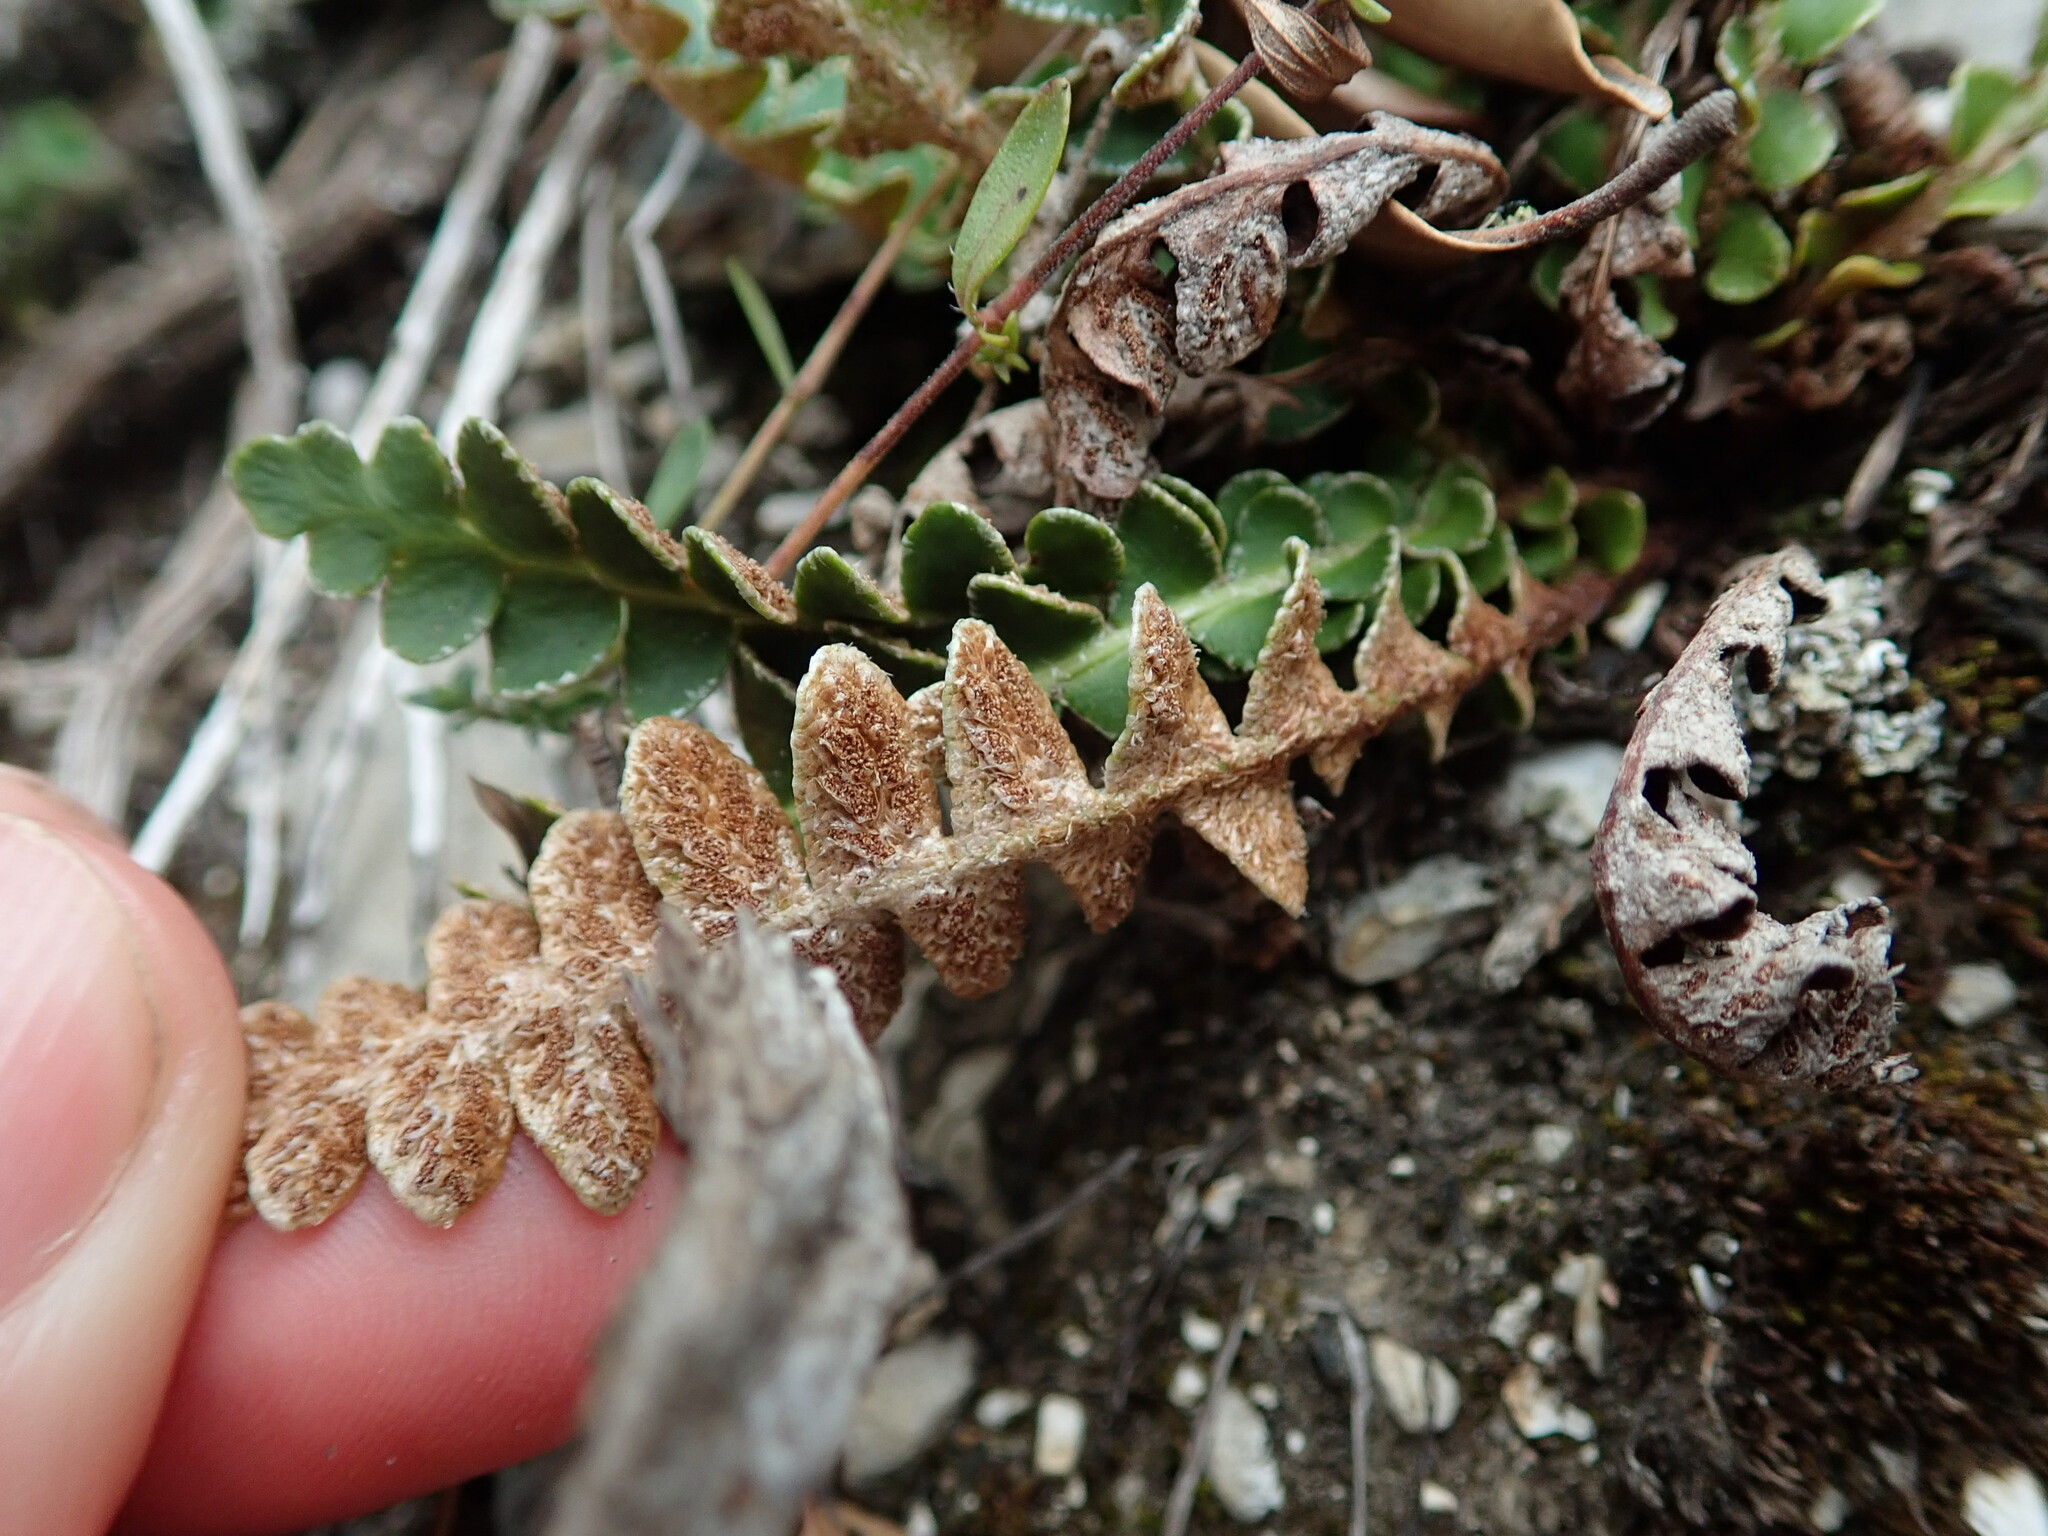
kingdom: Plantae
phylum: Tracheophyta
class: Polypodiopsida
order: Polypodiales
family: Aspleniaceae
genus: Asplenium
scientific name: Asplenium ceterach
